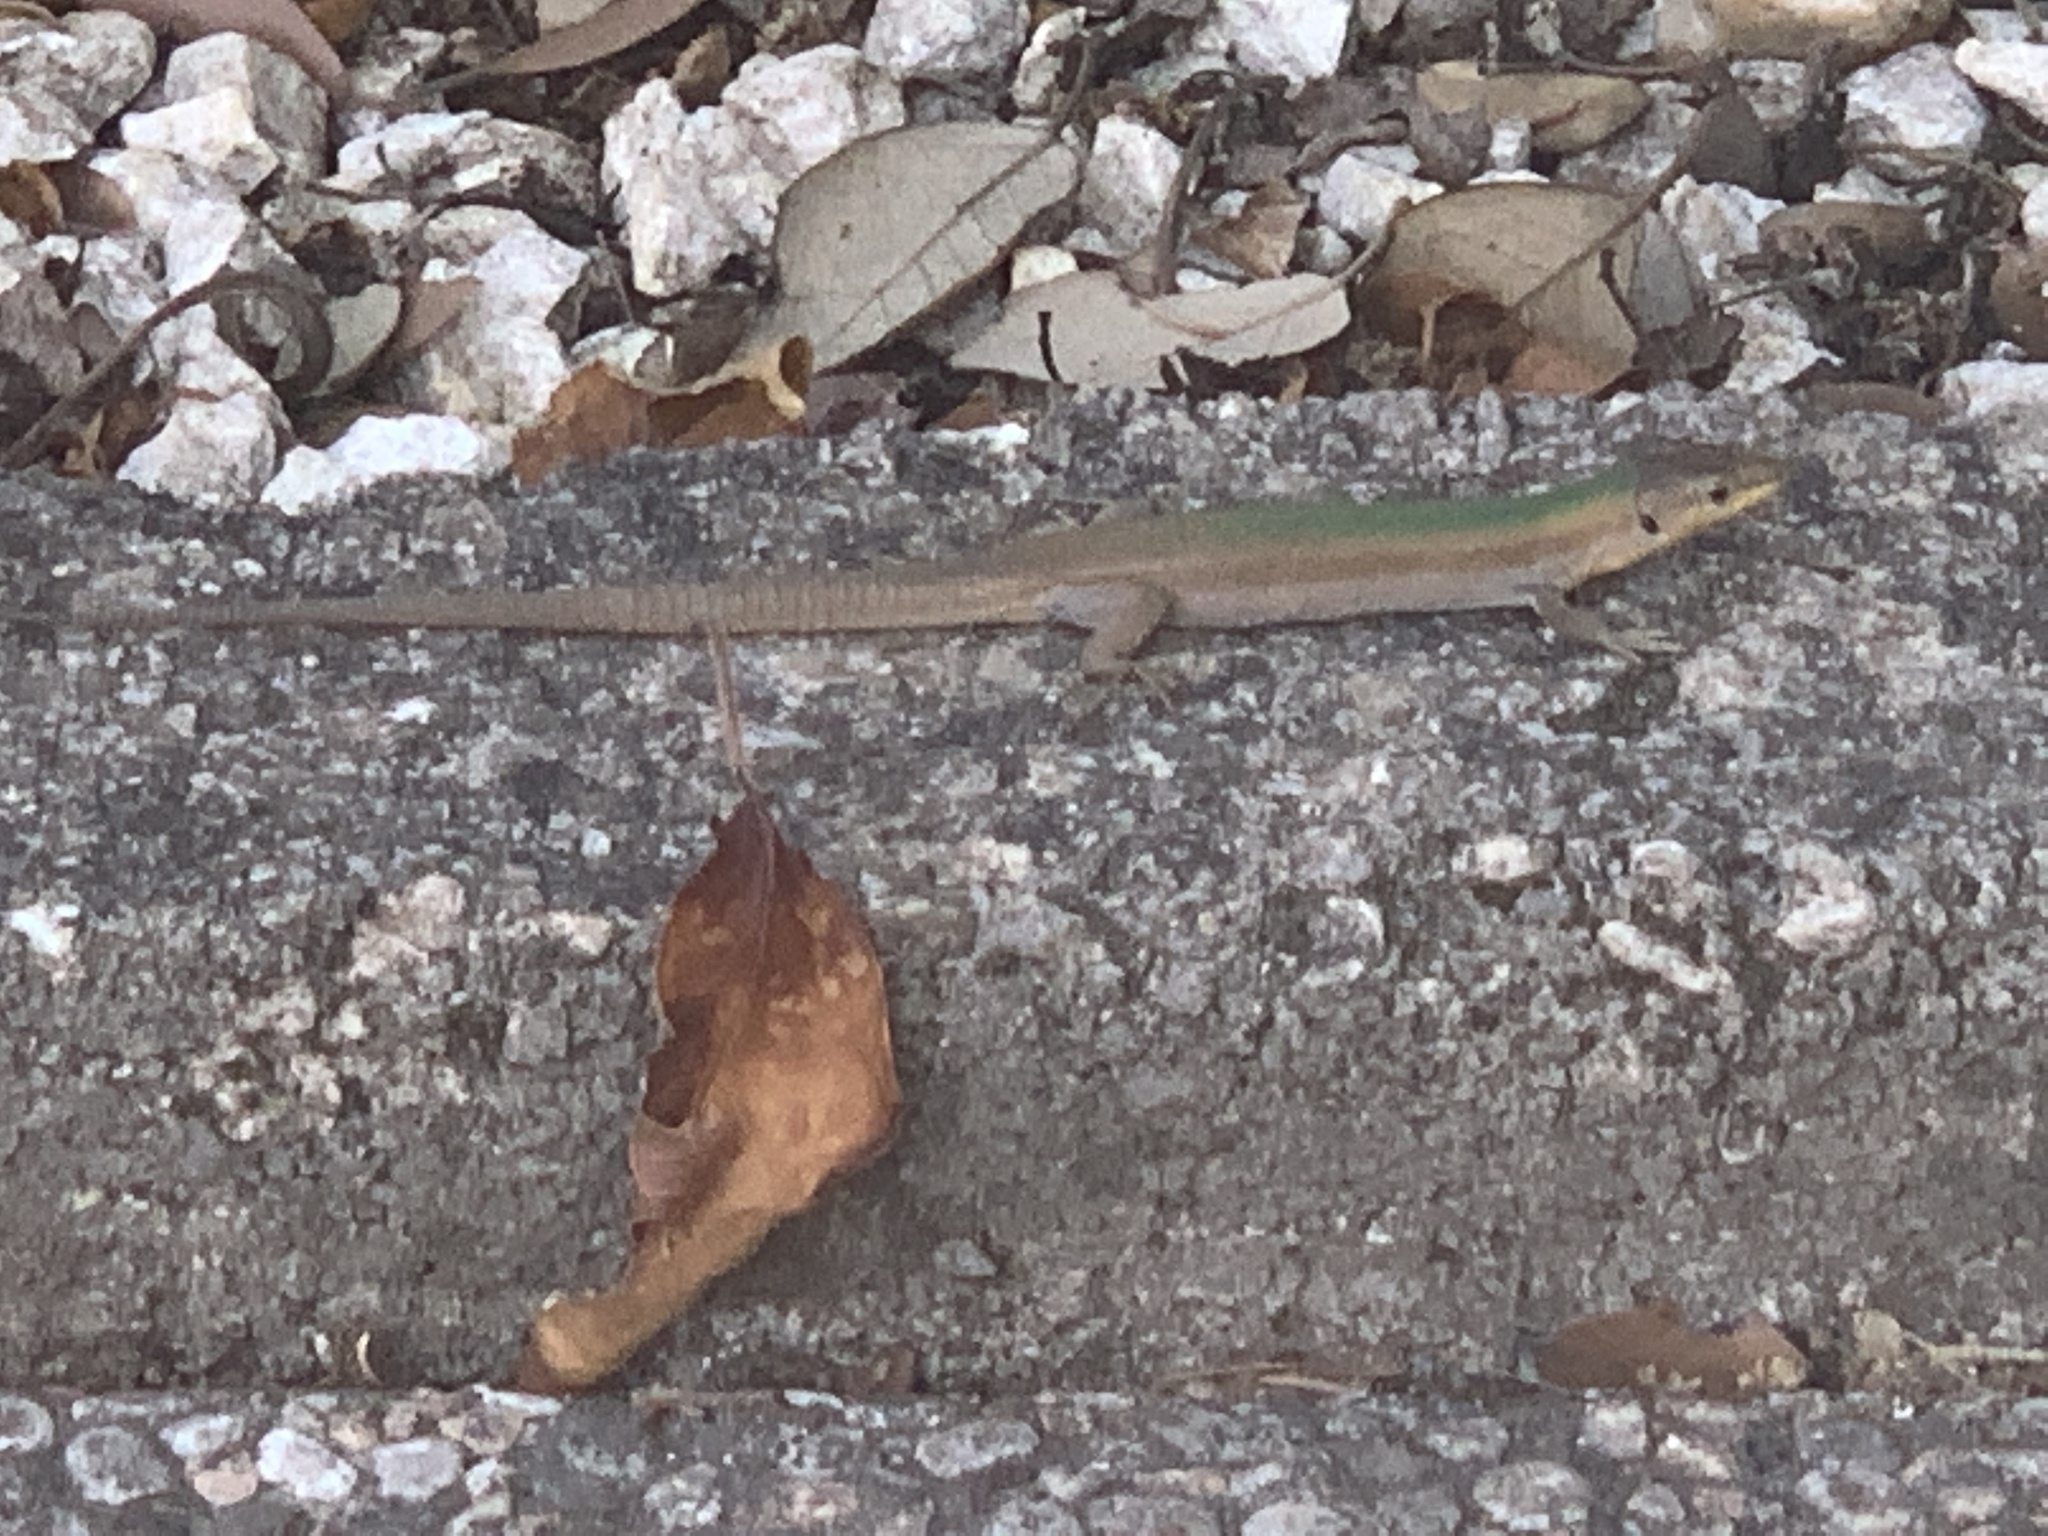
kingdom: Animalia
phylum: Chordata
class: Squamata
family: Lacertidae
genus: Podarcis
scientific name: Podarcis melisellensis
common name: Dalmatian wall lizard
